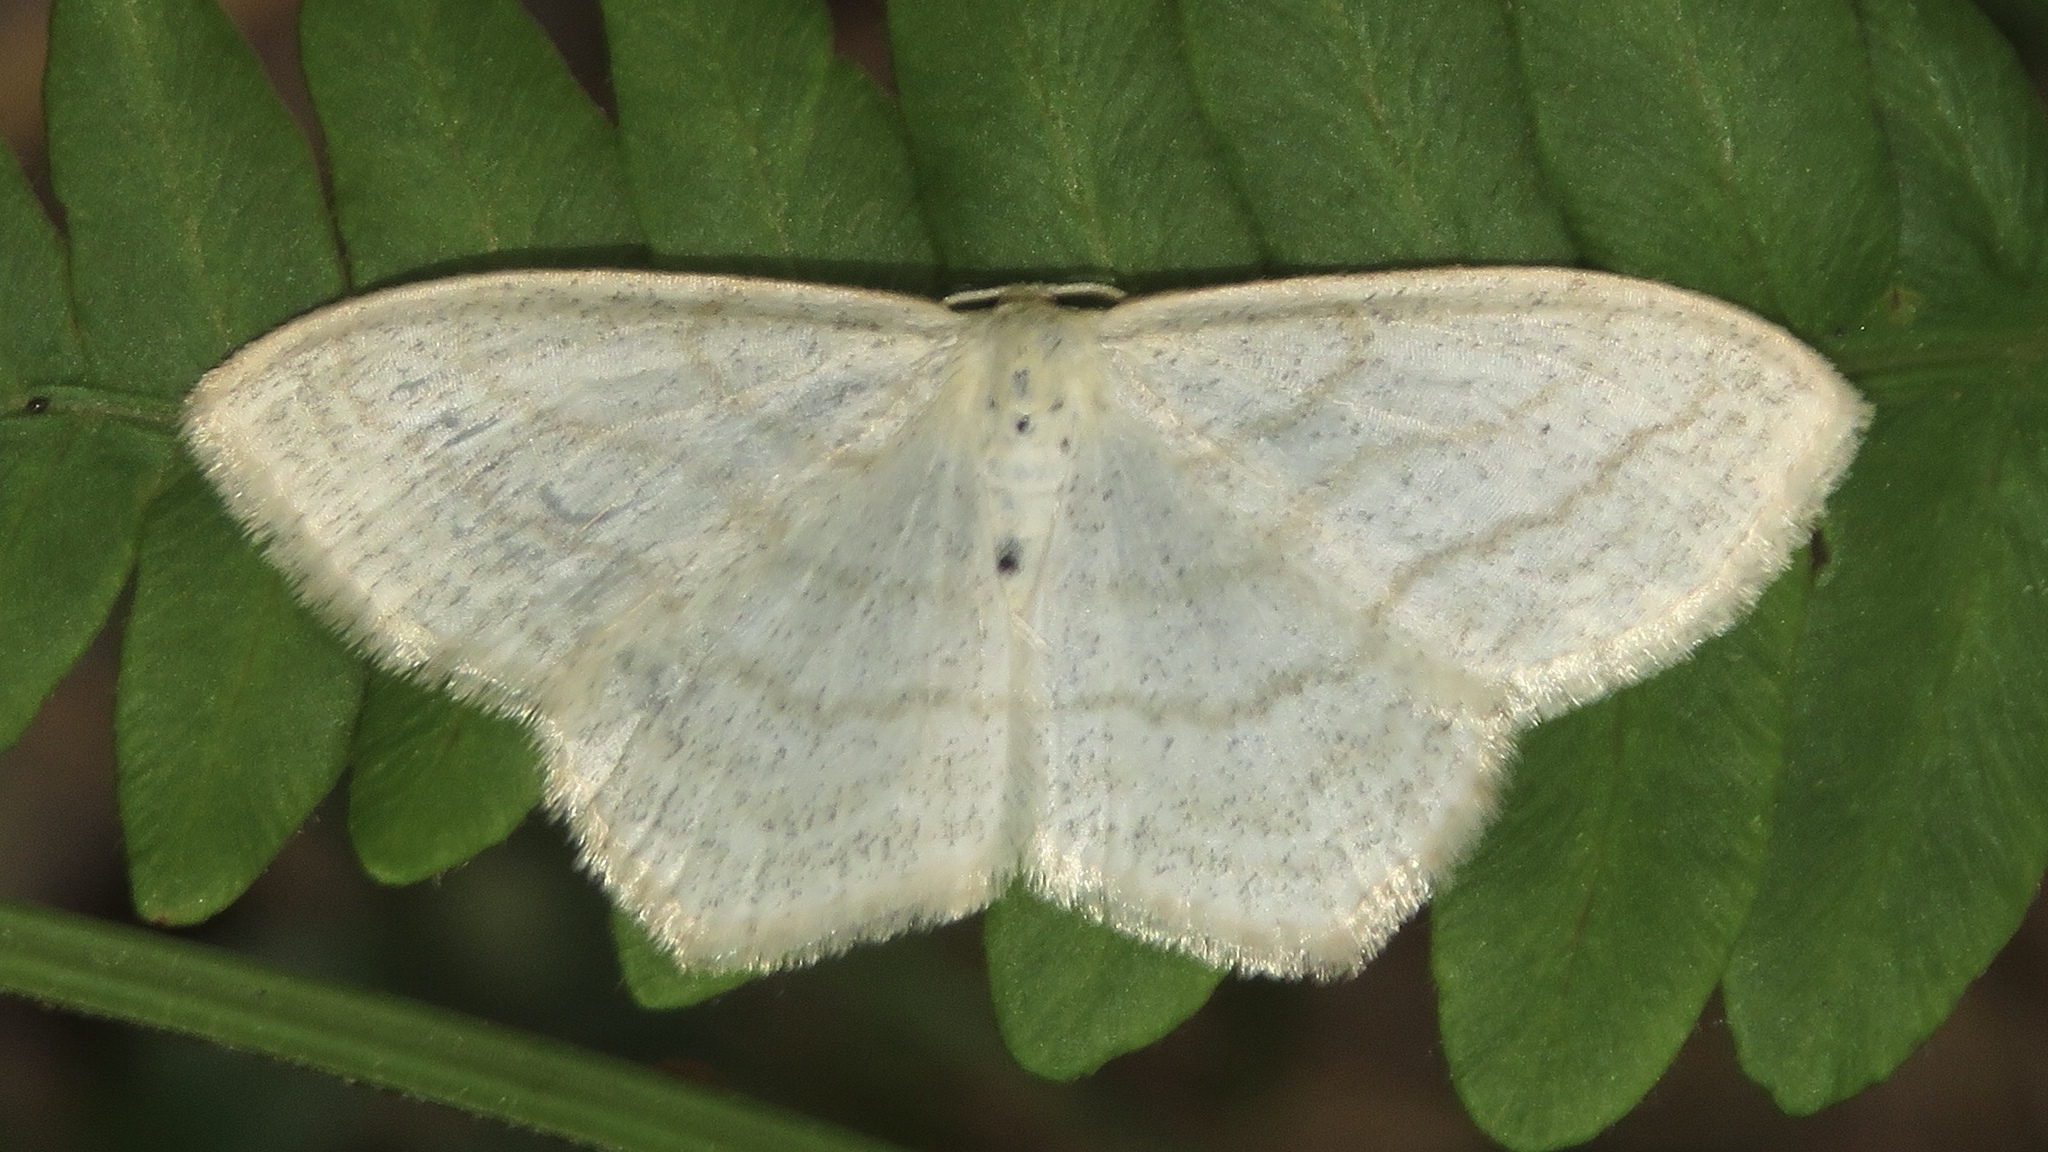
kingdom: Animalia
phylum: Arthropoda
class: Insecta
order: Lepidoptera
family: Geometridae
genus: Scopula
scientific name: Scopula limboundata
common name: Large lace border
